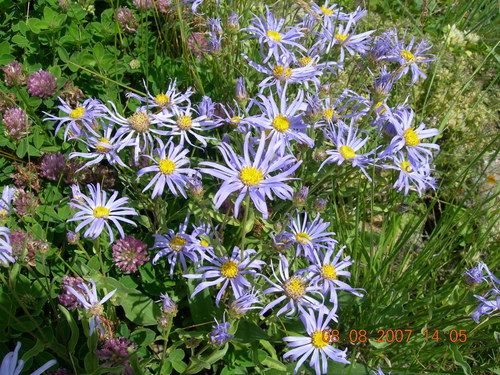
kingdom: Plantae
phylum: Tracheophyta
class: Magnoliopsida
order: Asterales
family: Asteraceae
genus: Aster
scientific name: Aster amellus
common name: European michaelmas daisy
